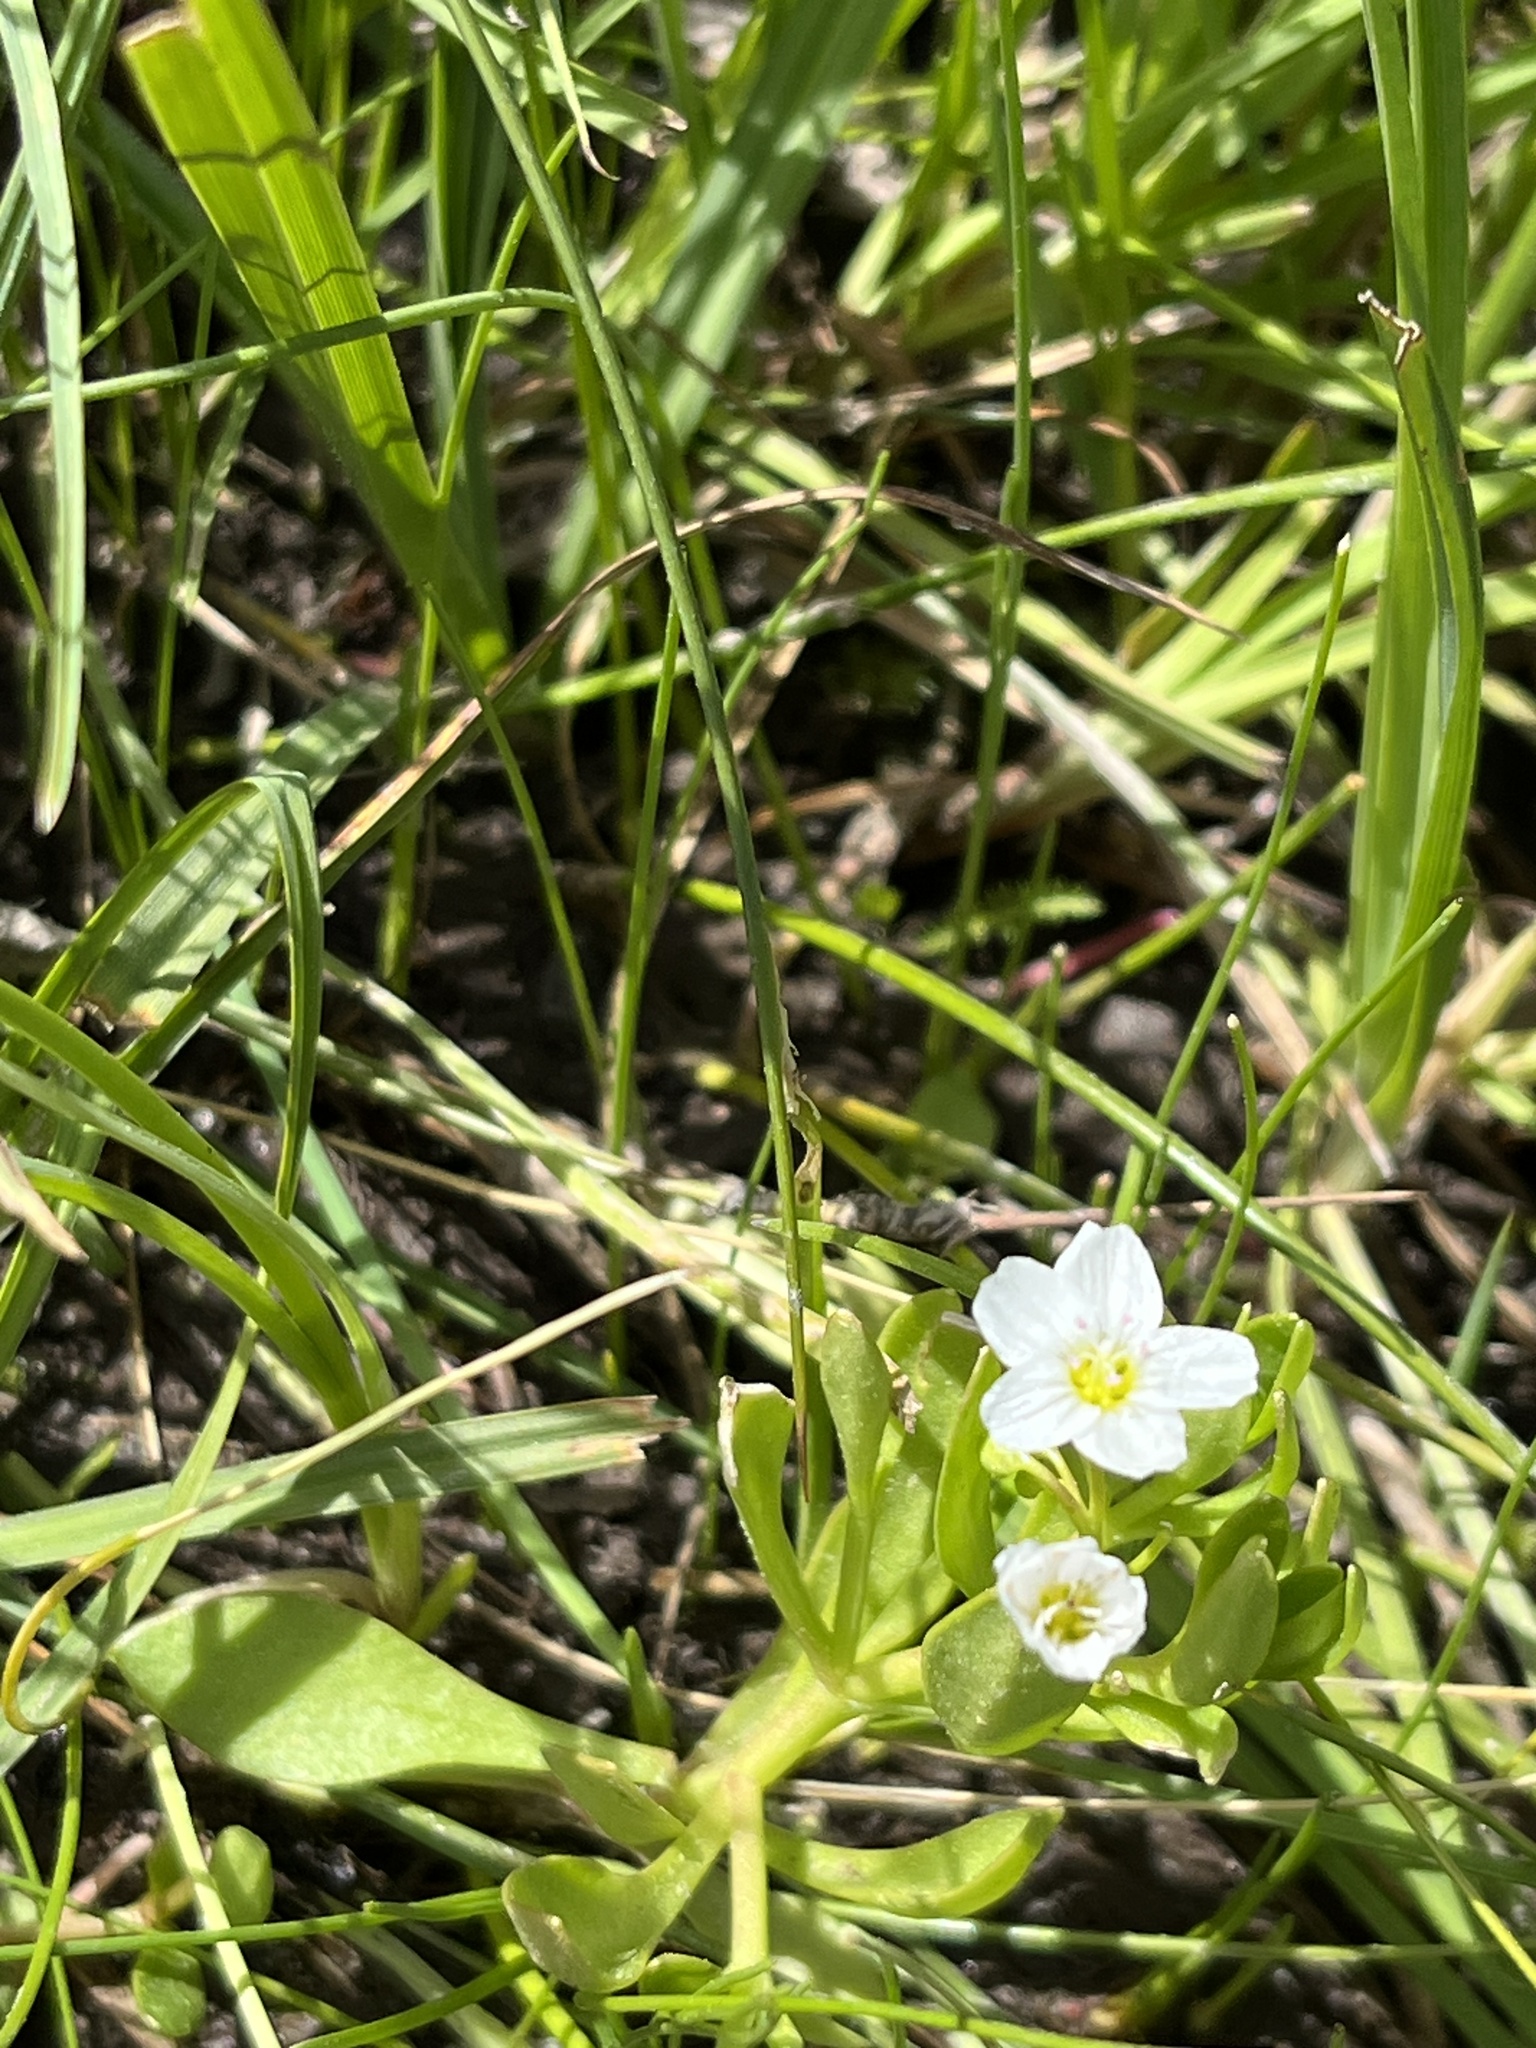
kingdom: Plantae
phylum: Tracheophyta
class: Magnoliopsida
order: Caryophyllales
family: Montiaceae
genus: Montia
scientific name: Montia chamissoi
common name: Chamisso's candyflower
